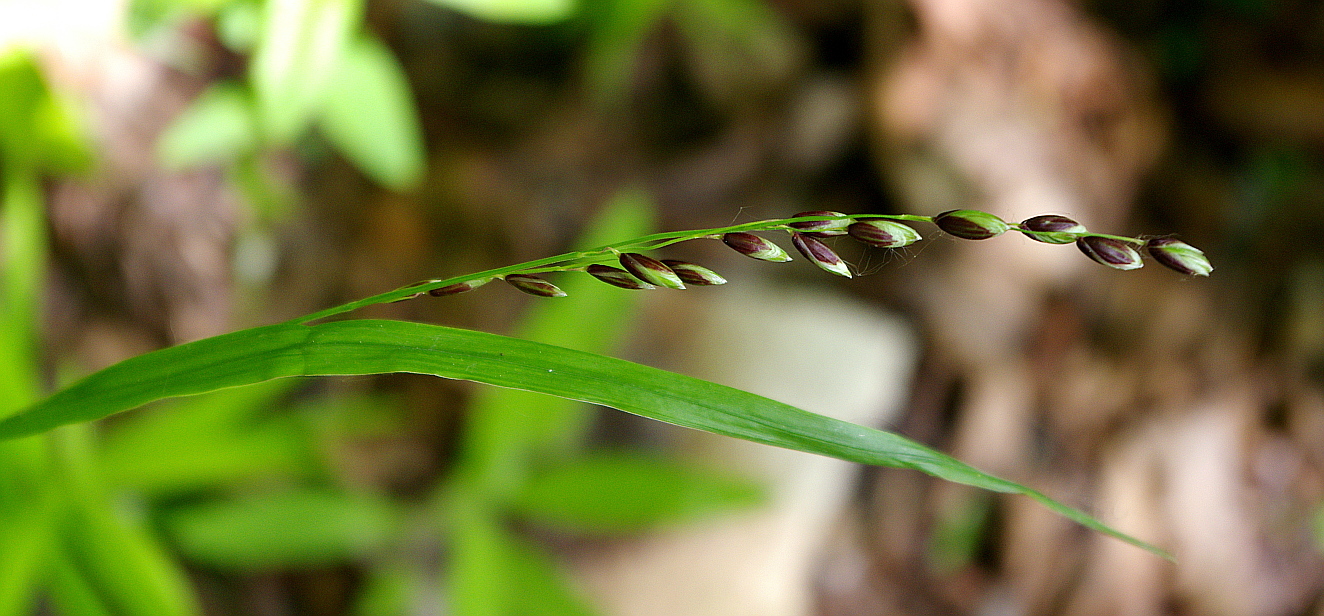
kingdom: Plantae
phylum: Tracheophyta
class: Liliopsida
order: Poales
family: Poaceae
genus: Melica
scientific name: Melica nutans
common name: Mountain melick
